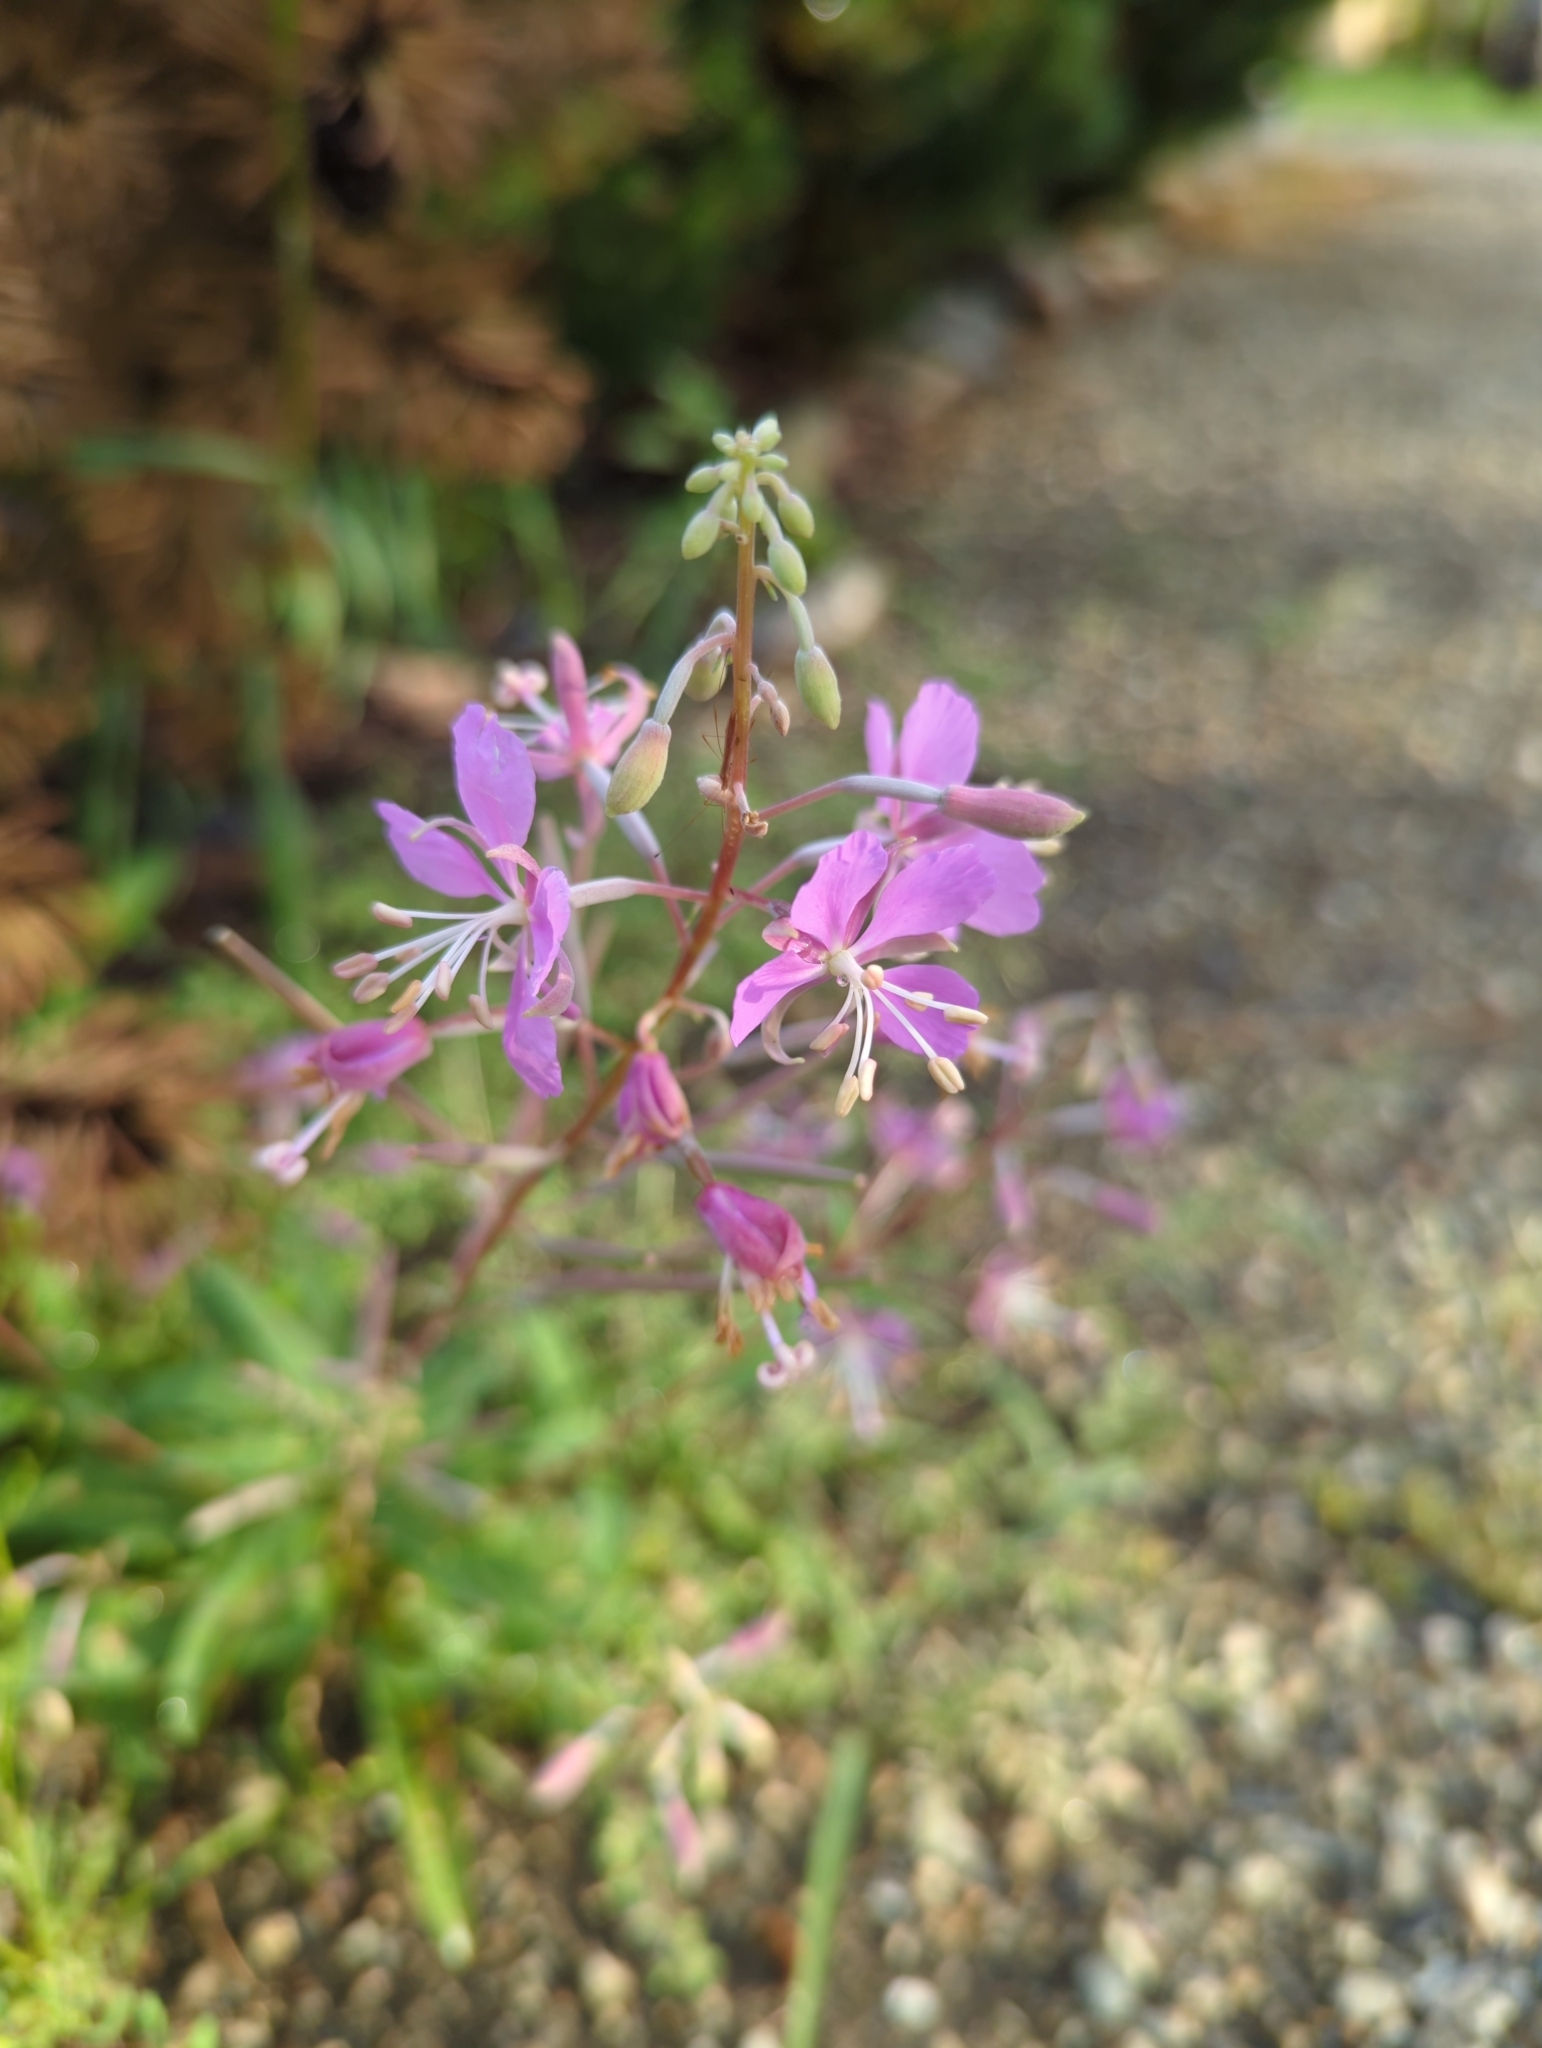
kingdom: Plantae
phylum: Tracheophyta
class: Magnoliopsida
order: Myrtales
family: Onagraceae
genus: Chamaenerion
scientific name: Chamaenerion angustifolium
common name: Fireweed
